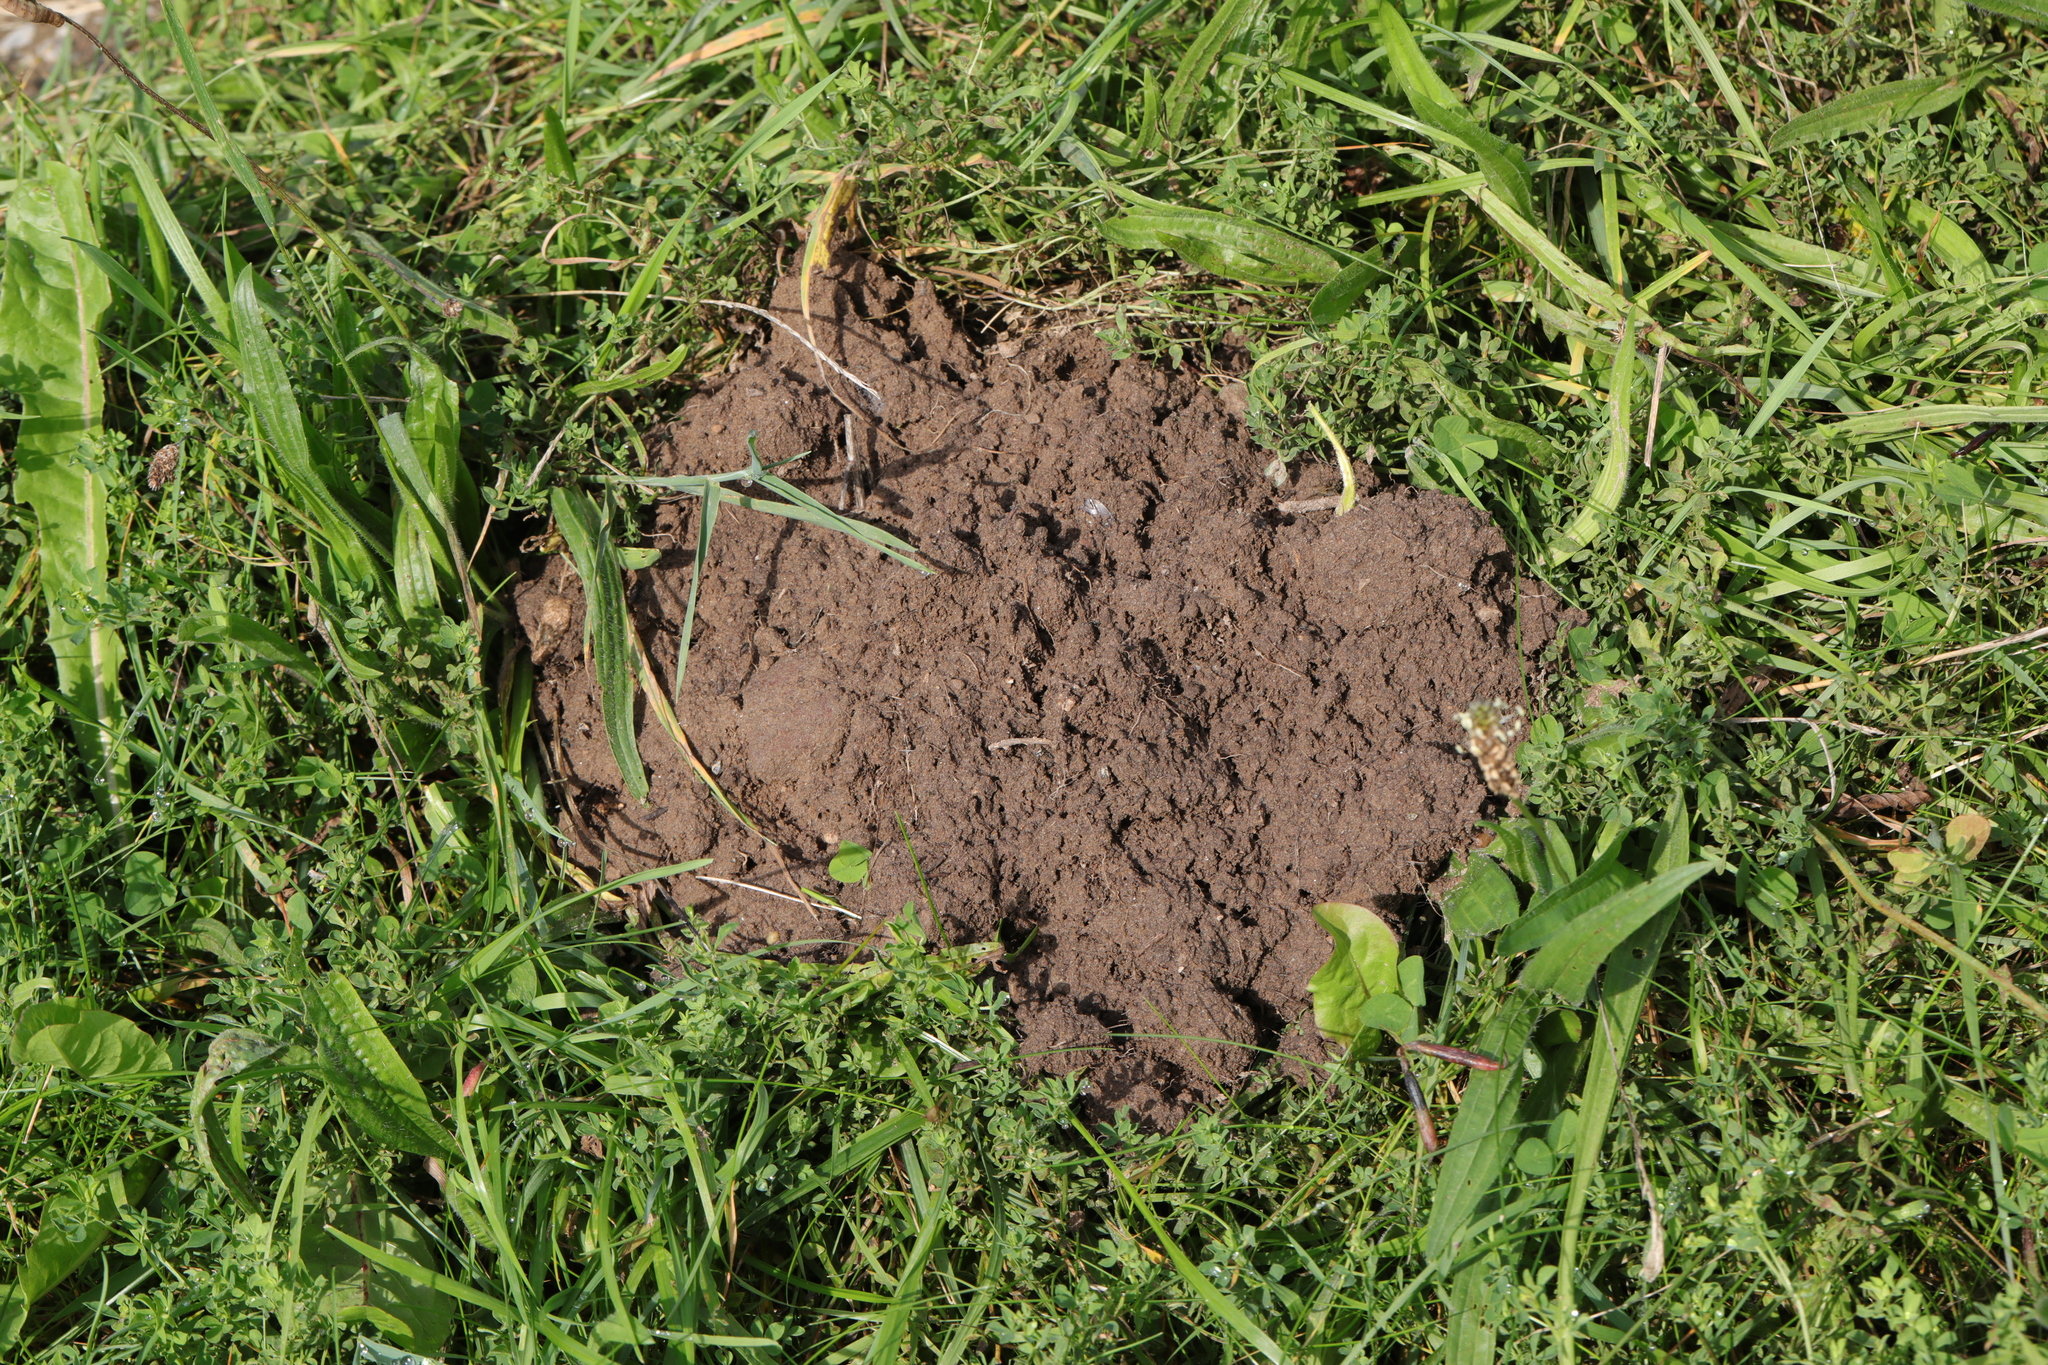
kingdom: Animalia
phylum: Chordata
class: Mammalia
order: Soricomorpha
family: Talpidae
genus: Talpa
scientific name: Talpa europaea
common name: European mole
